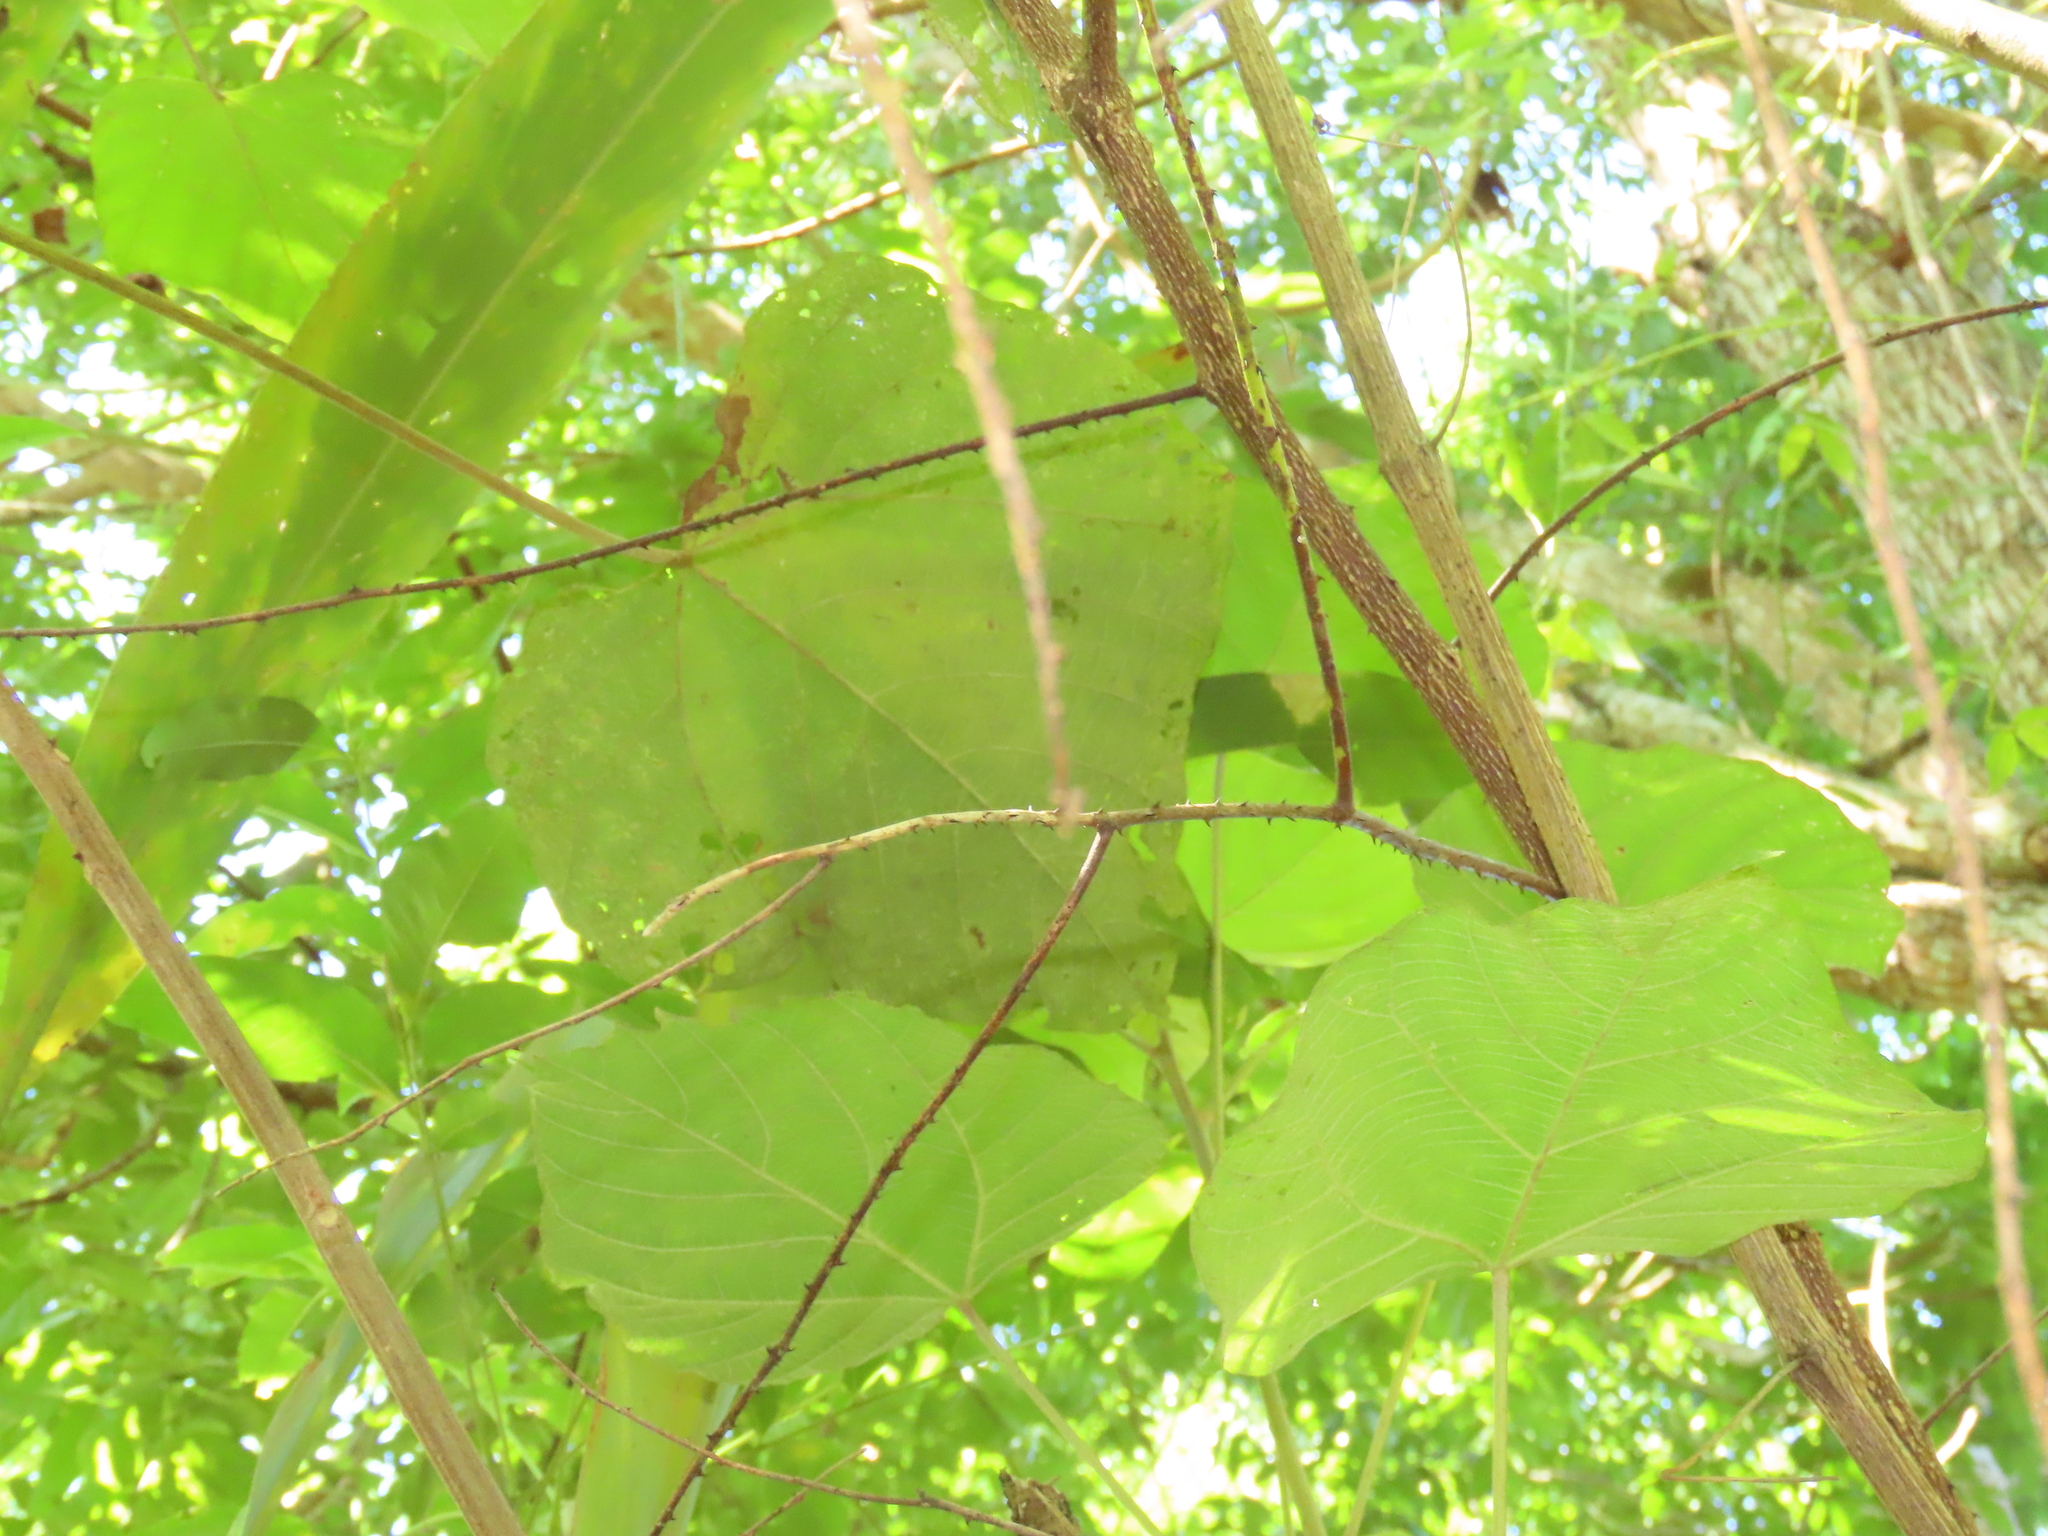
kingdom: Plantae
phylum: Tracheophyta
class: Magnoliopsida
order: Malpighiales
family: Euphorbiaceae
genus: Mallotus
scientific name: Mallotus japonicus
